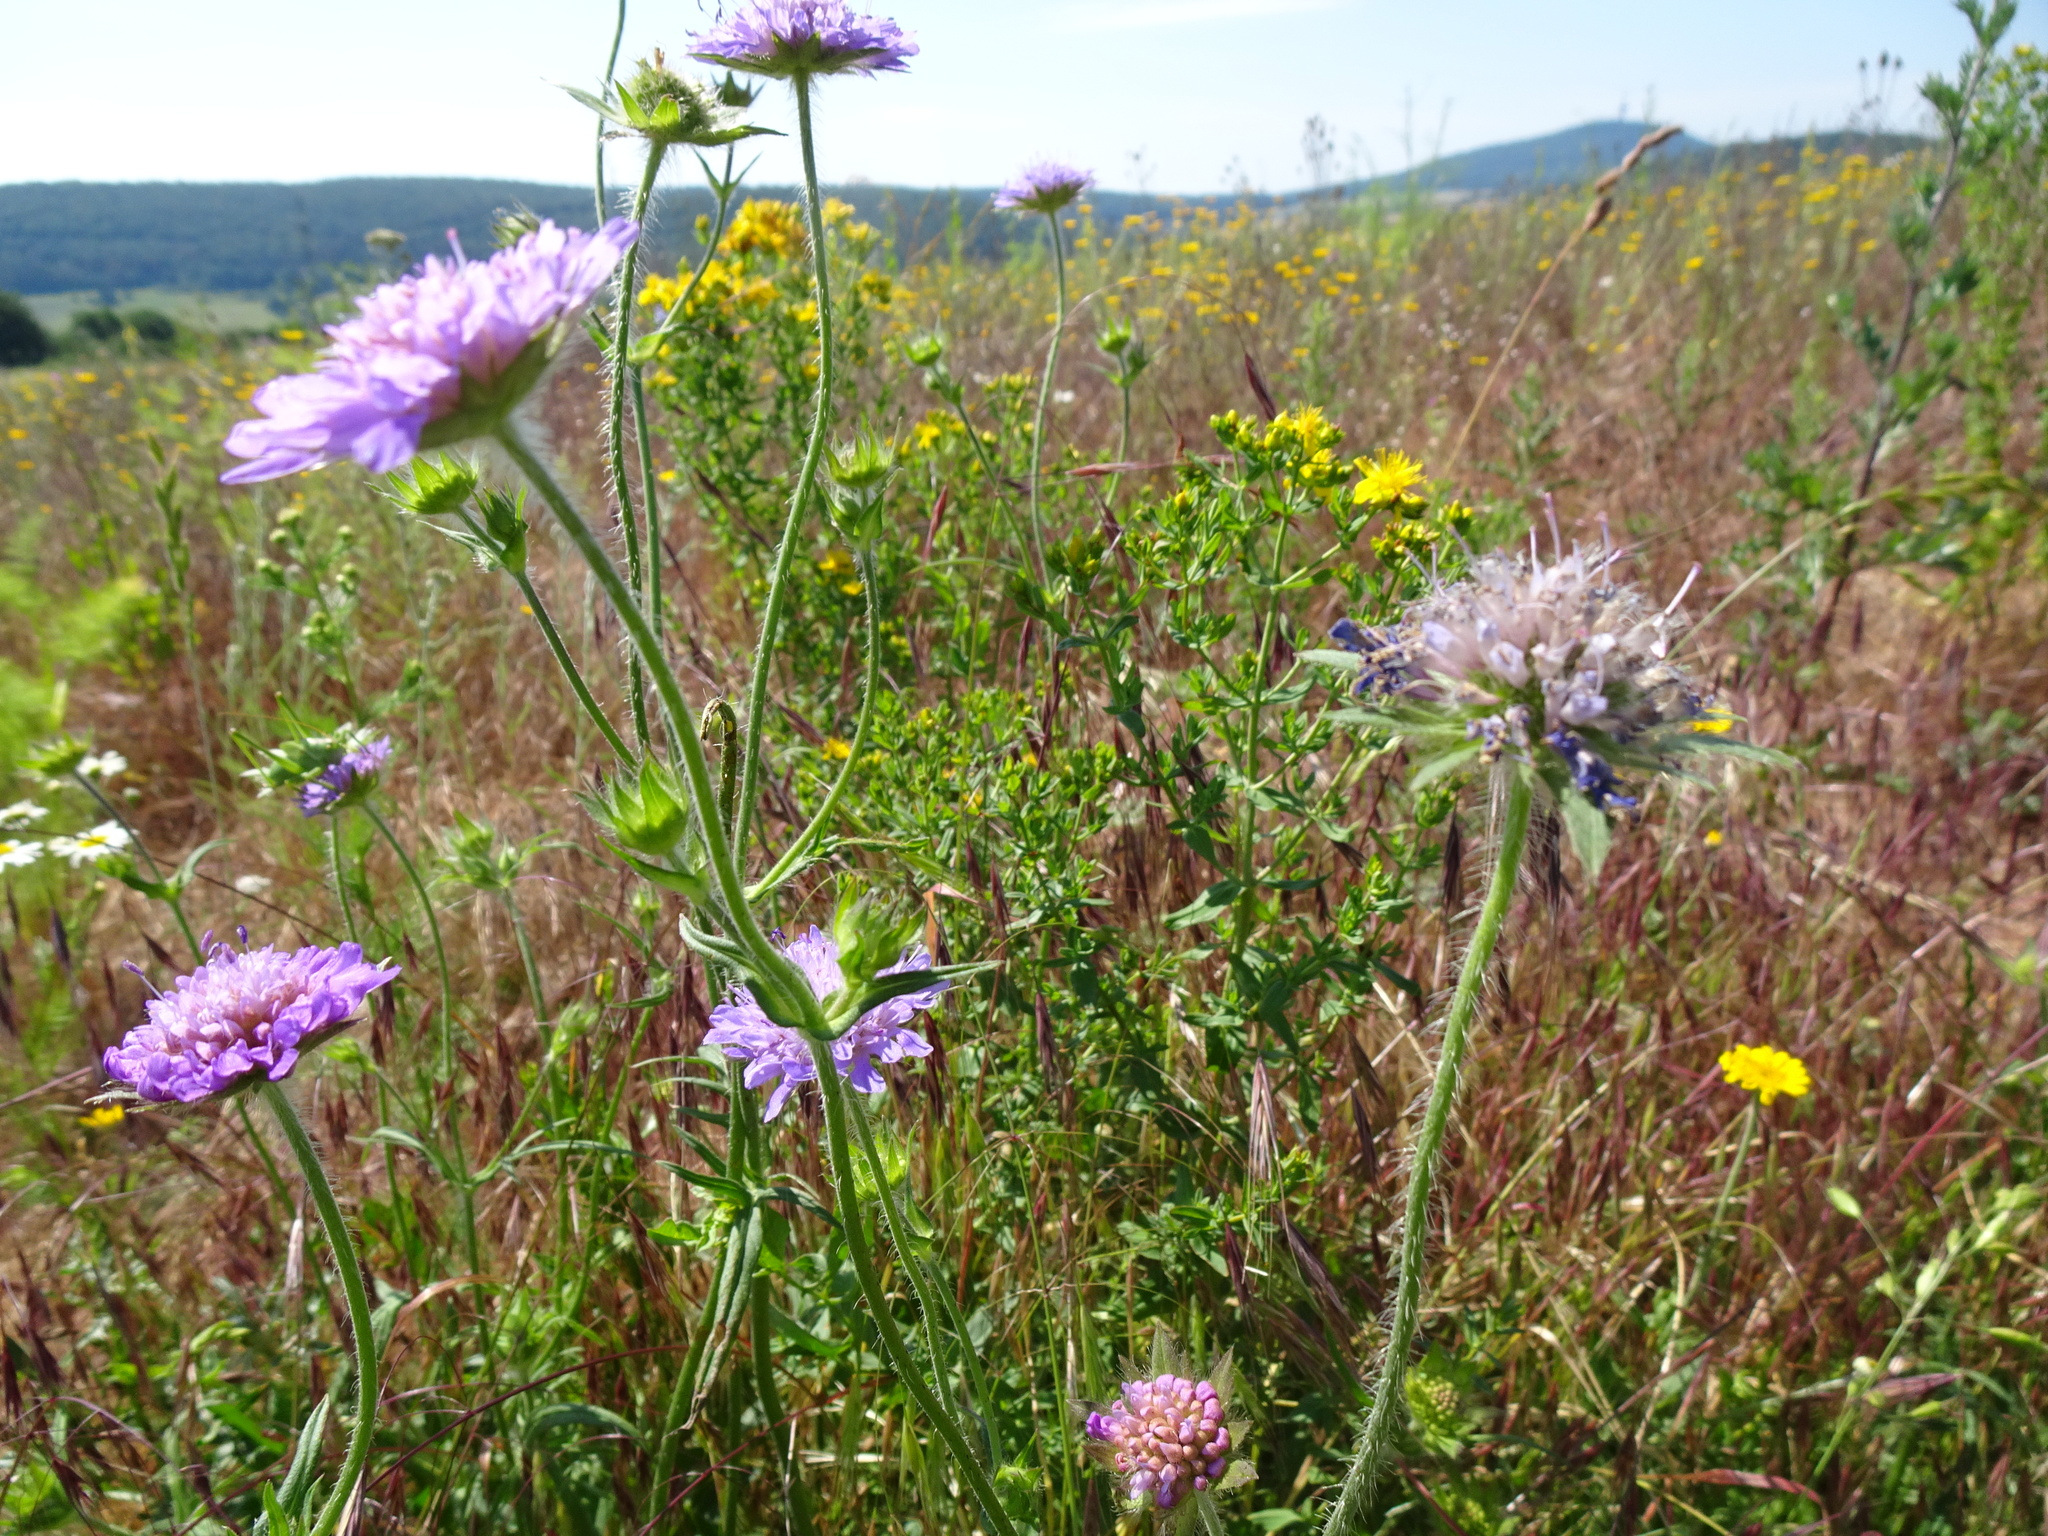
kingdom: Plantae
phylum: Tracheophyta
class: Magnoliopsida
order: Dipsacales
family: Caprifoliaceae
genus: Knautia
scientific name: Knautia arvensis
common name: Field scabiosa
